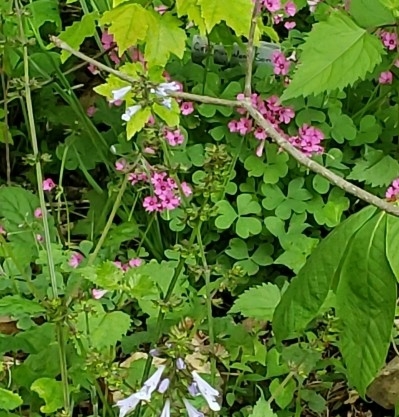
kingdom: Plantae
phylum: Tracheophyta
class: Magnoliopsida
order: Oxalidales
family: Oxalidaceae
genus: Oxalis
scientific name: Oxalis articulata
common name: Pink-sorrel
